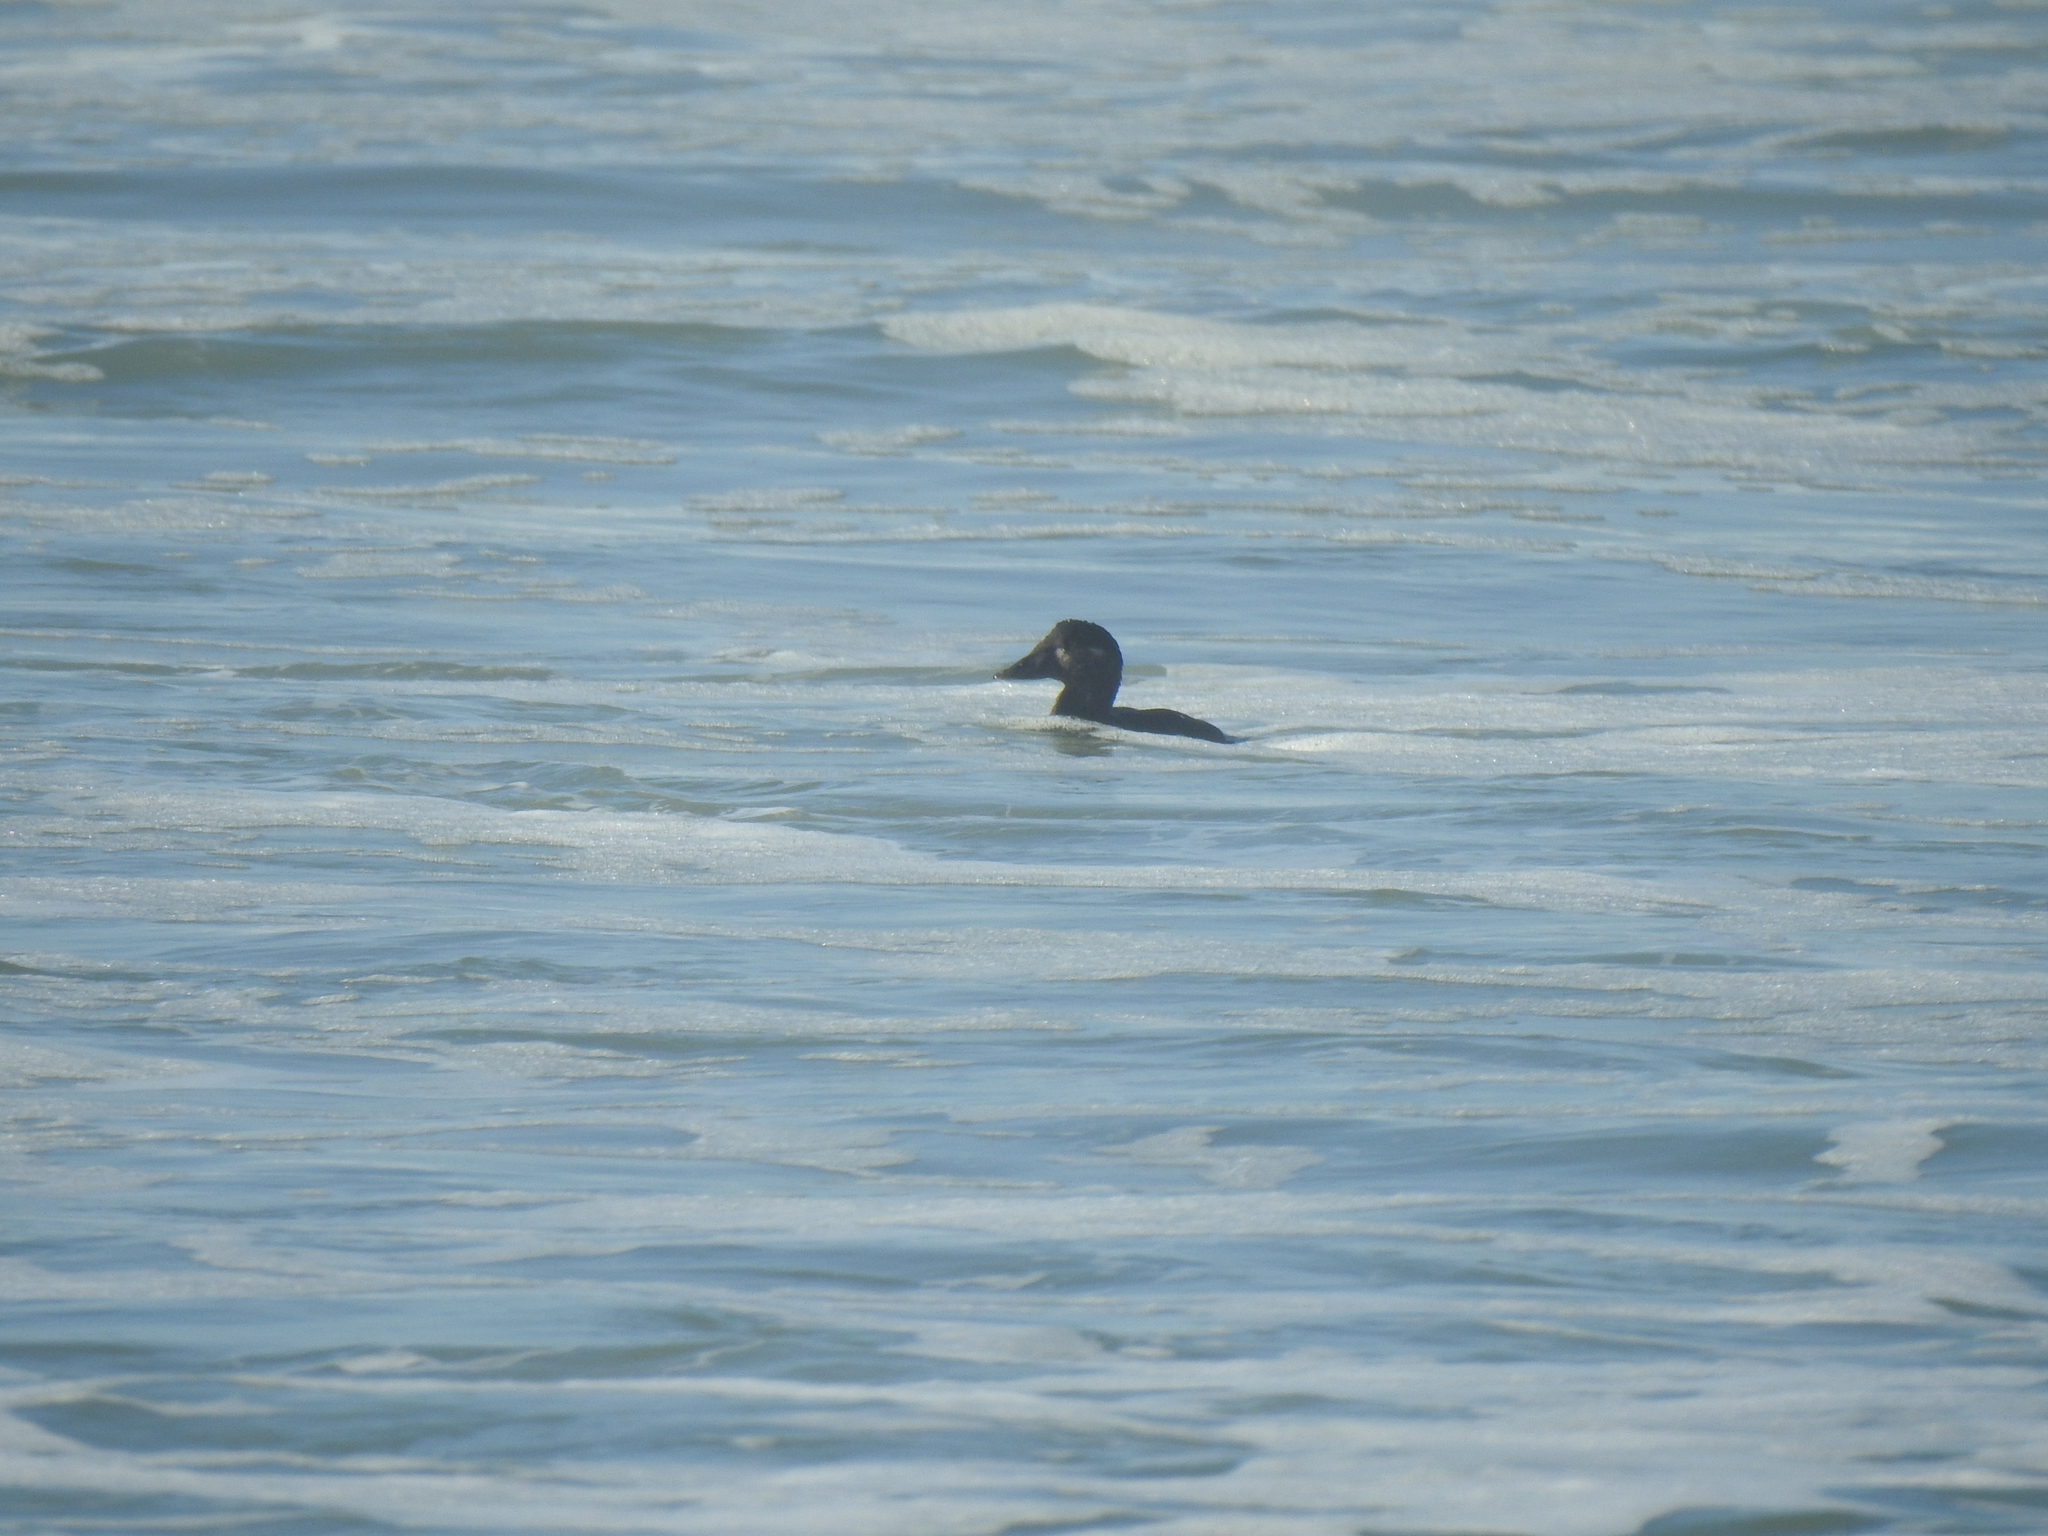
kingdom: Animalia
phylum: Chordata
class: Aves
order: Anseriformes
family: Anatidae
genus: Melanitta
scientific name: Melanitta perspicillata
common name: Surf scoter
